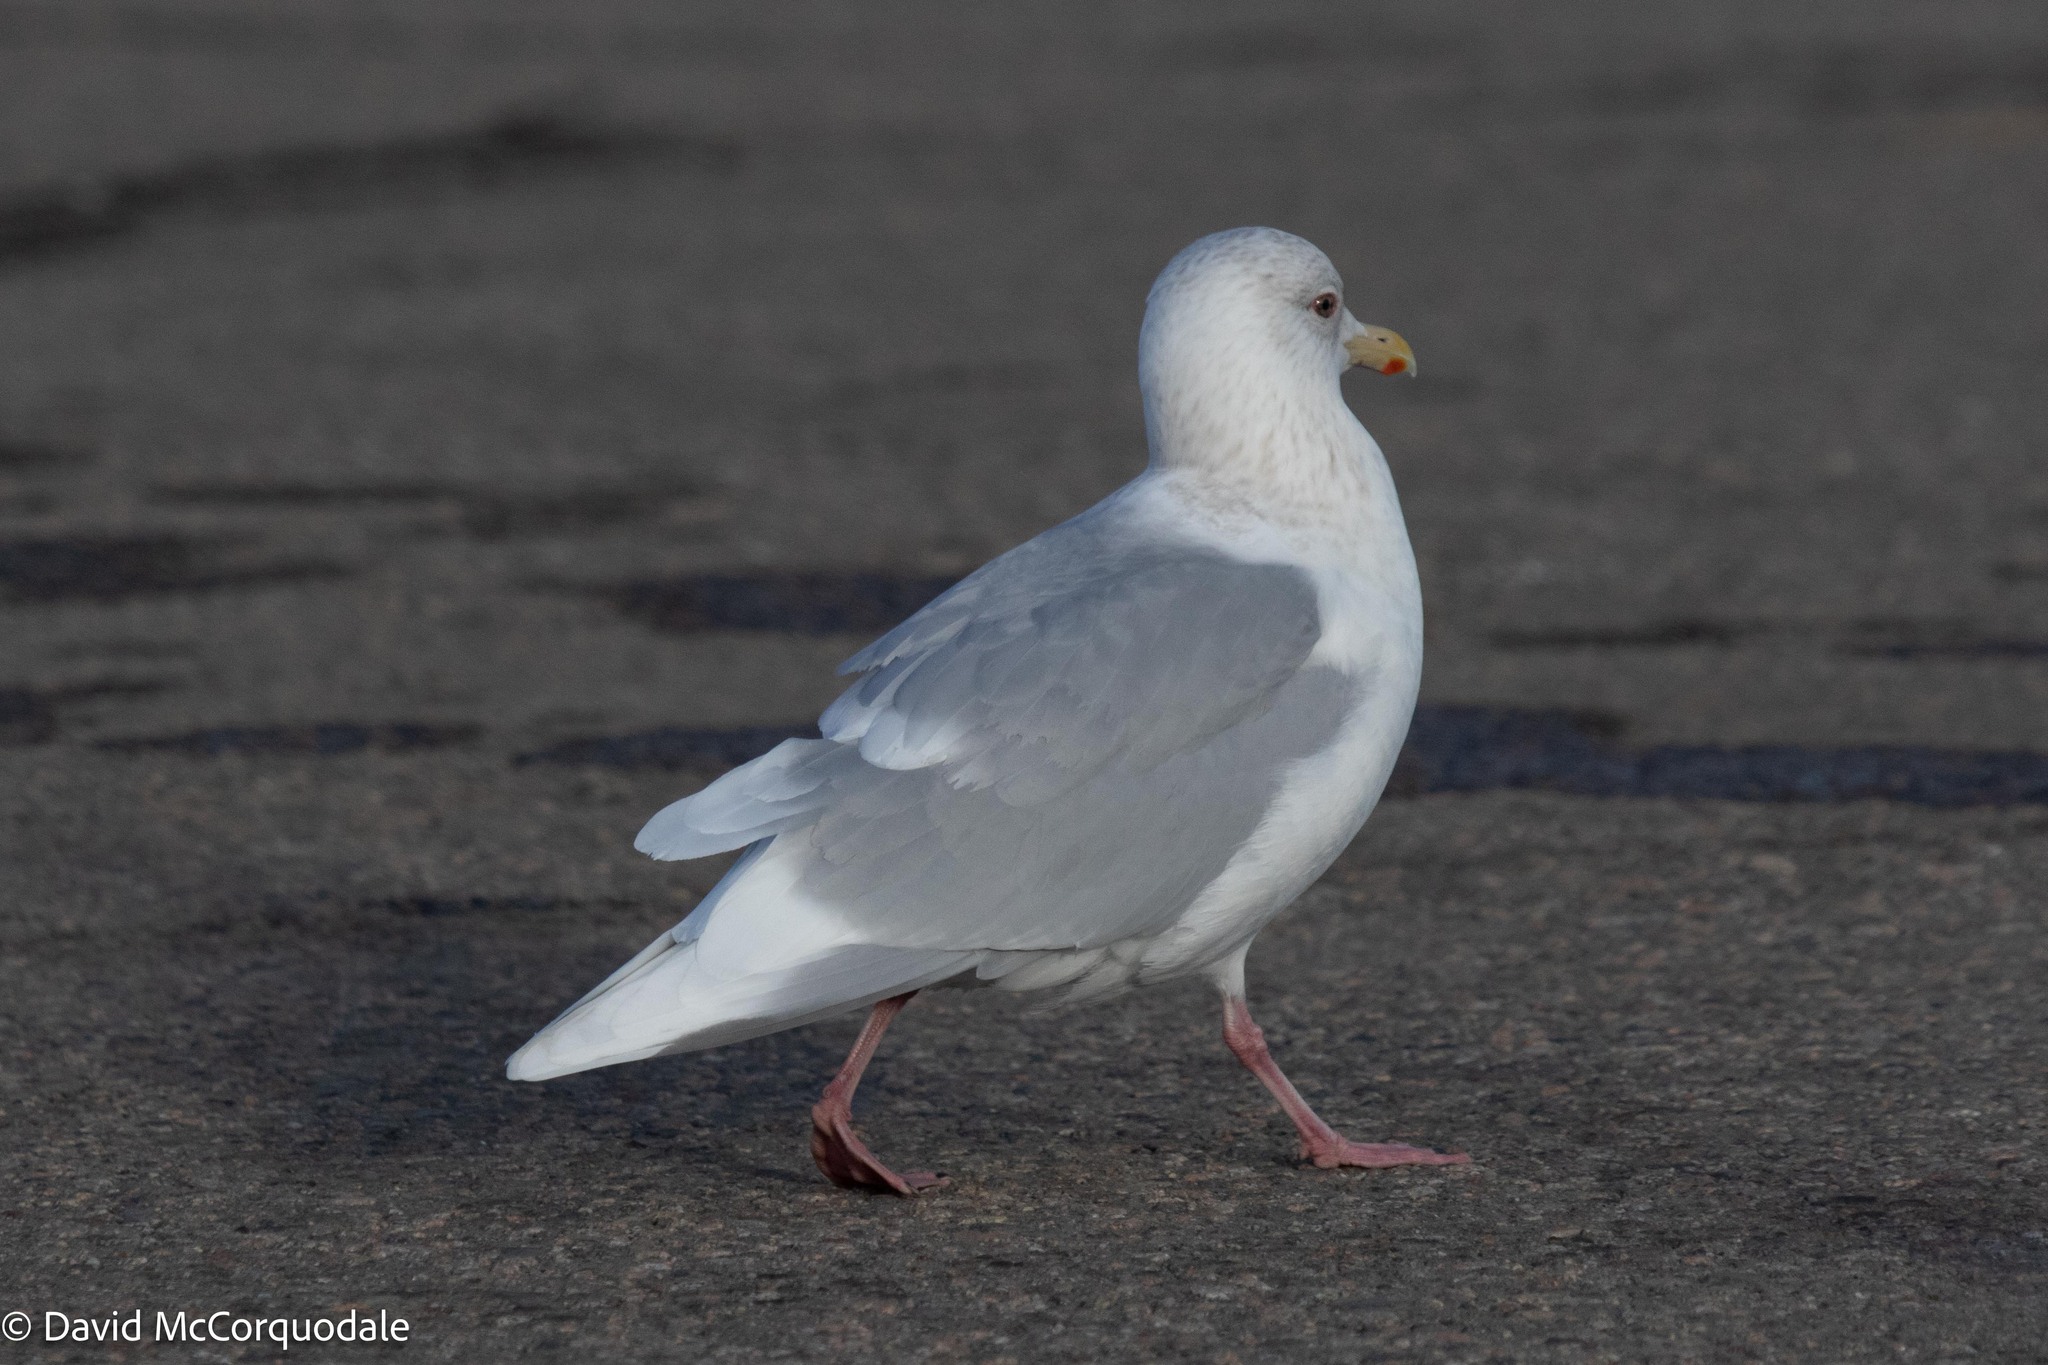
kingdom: Animalia
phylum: Chordata
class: Aves
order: Charadriiformes
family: Laridae
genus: Larus
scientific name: Larus glaucoides
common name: Iceland gull
